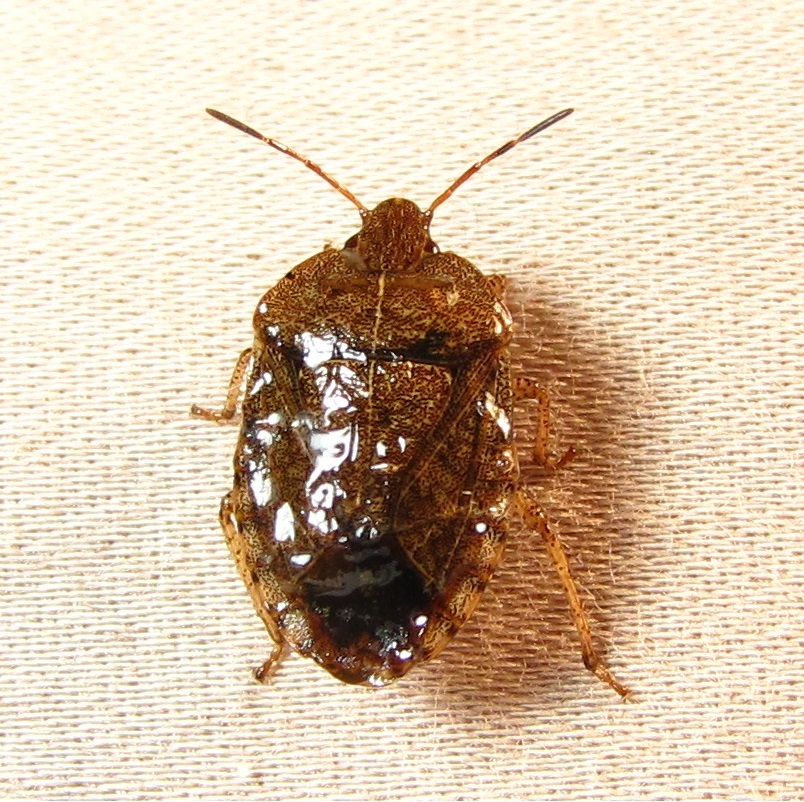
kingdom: Animalia
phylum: Arthropoda
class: Insecta
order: Hemiptera
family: Pentatomidae
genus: Menecles
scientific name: Menecles insertus
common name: Elf shoe stink bug
